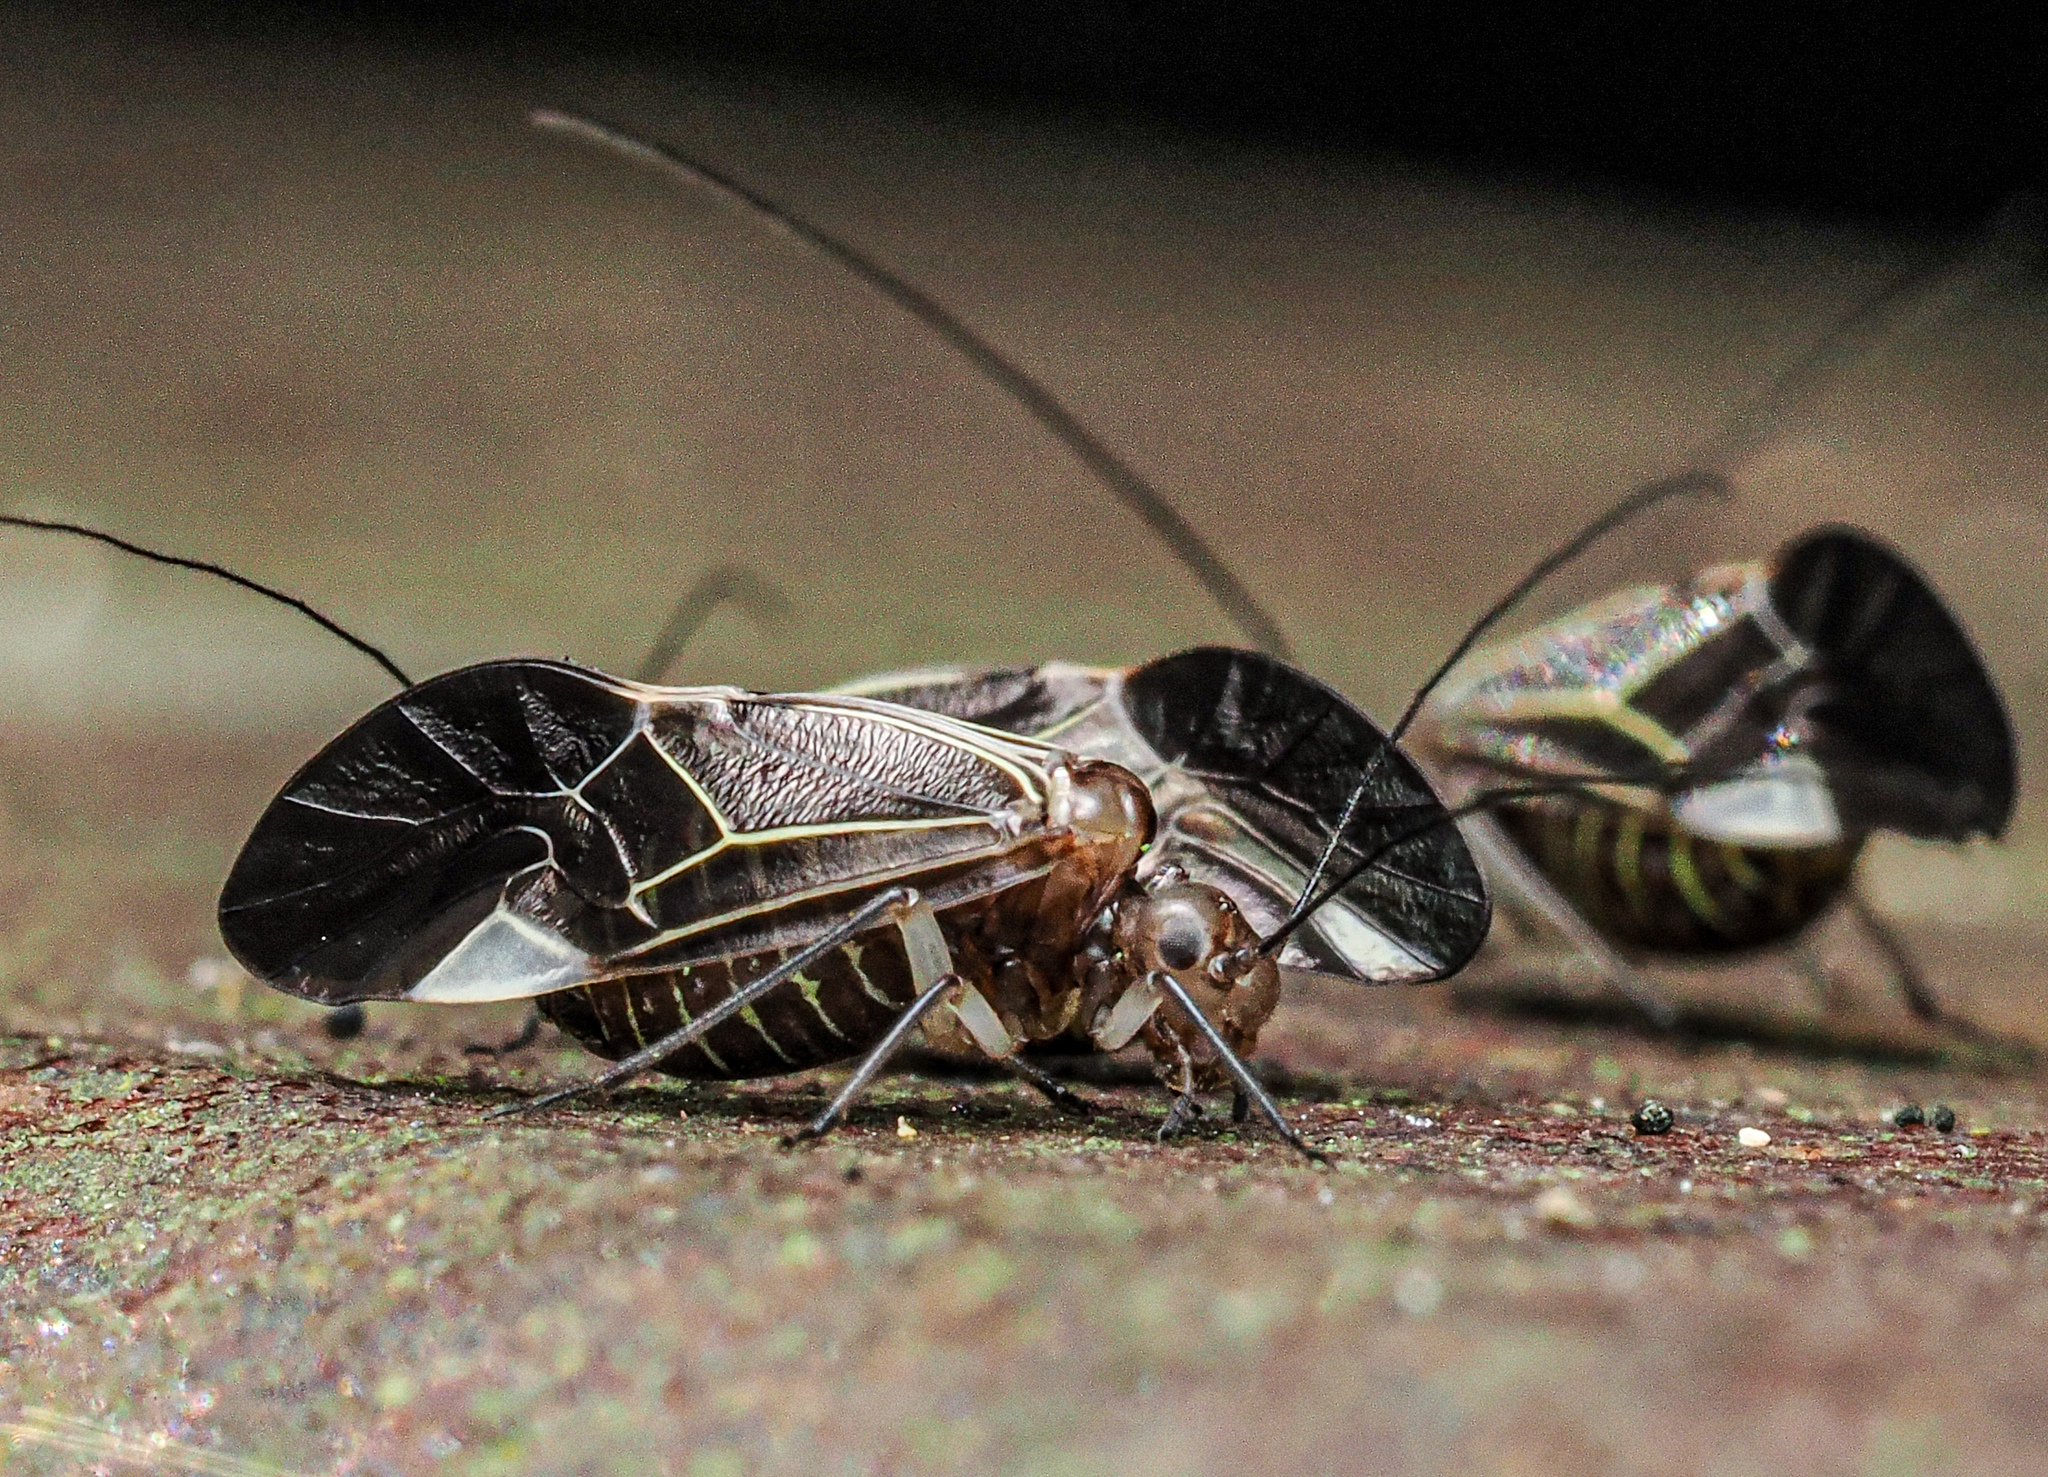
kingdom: Animalia
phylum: Arthropoda
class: Insecta
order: Psocodea
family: Psocidae
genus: Cerastipsocus
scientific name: Cerastipsocus venosus
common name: Tree cattle
